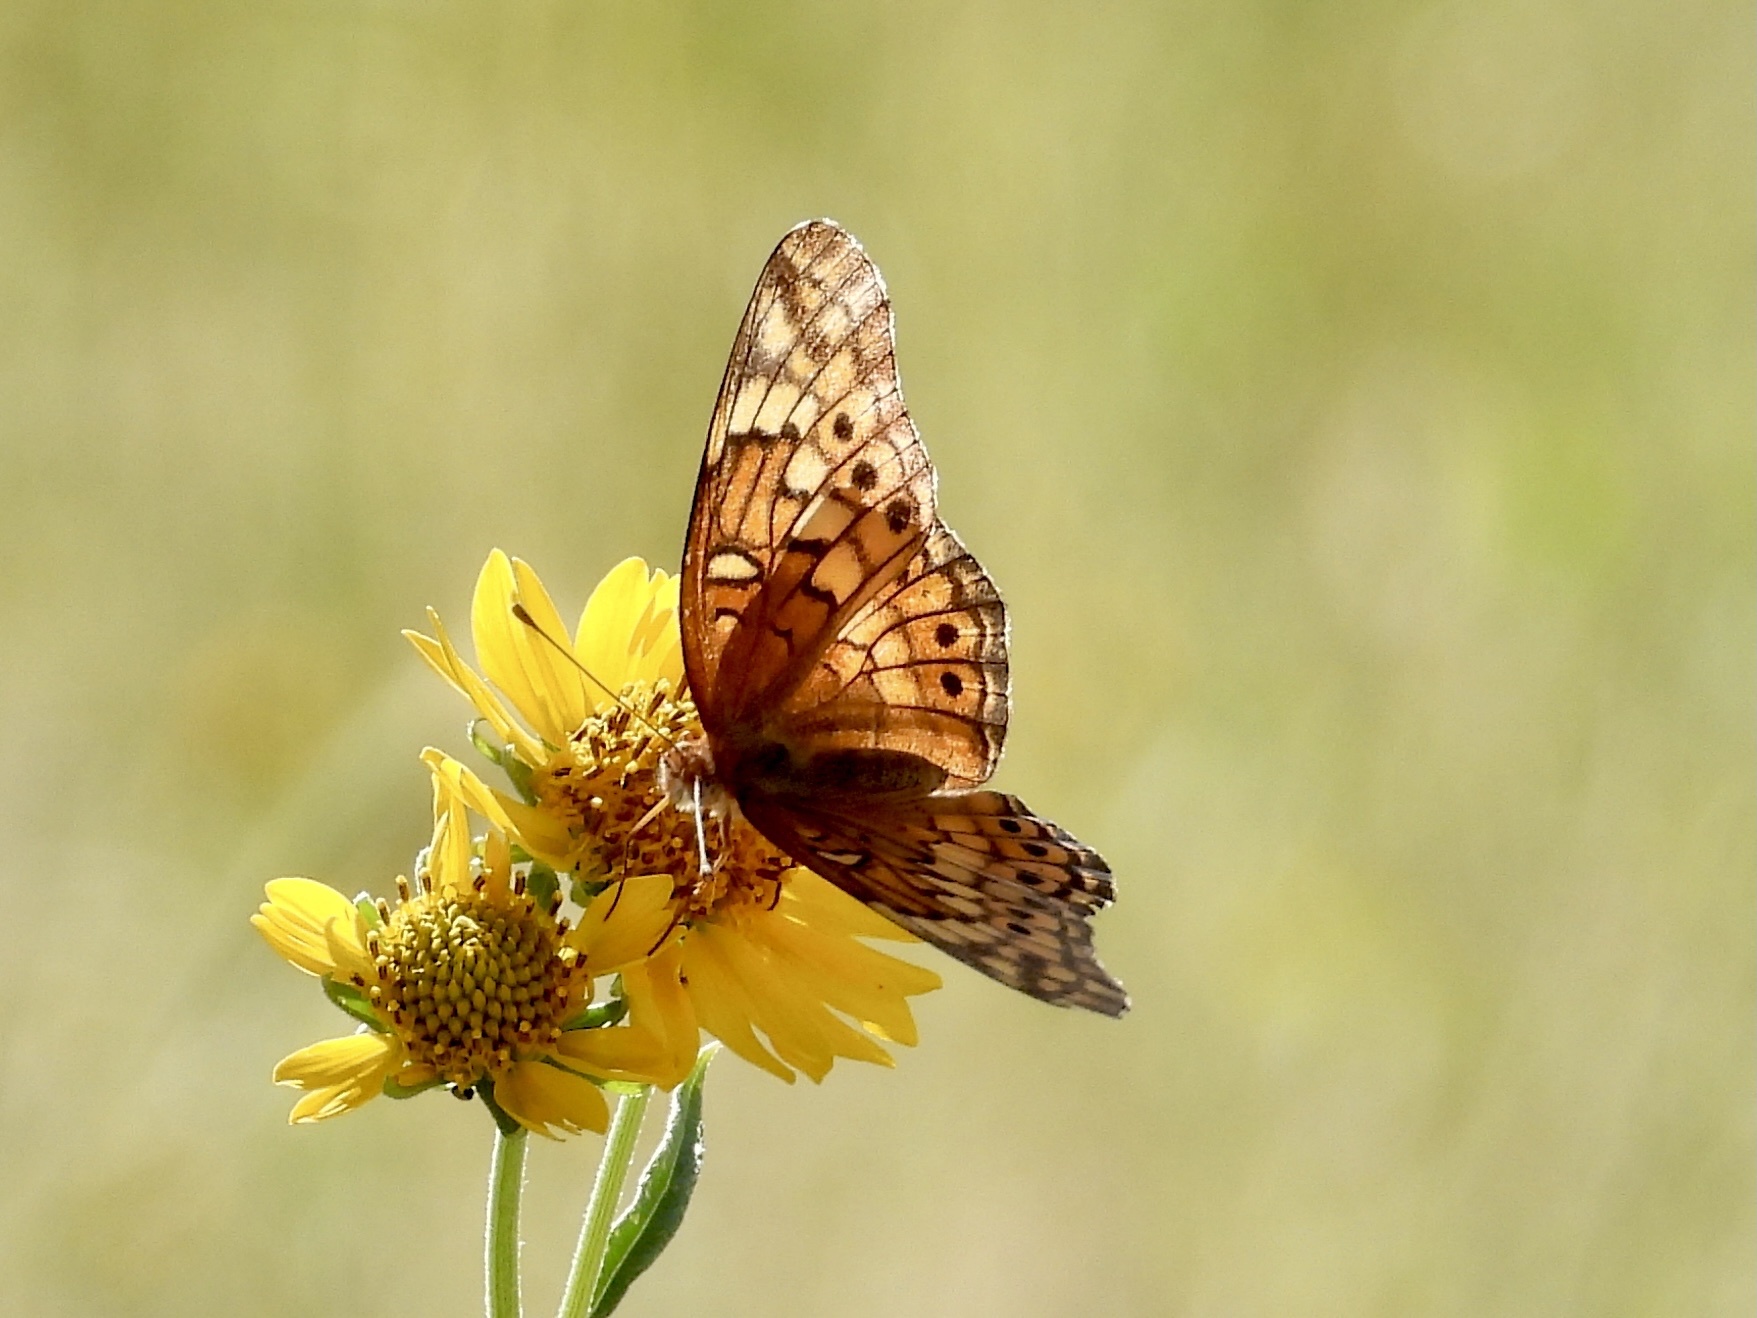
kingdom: Animalia
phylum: Arthropoda
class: Insecta
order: Lepidoptera
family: Nymphalidae
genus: Euptoieta
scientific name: Euptoieta claudia
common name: Variegated fritillary
